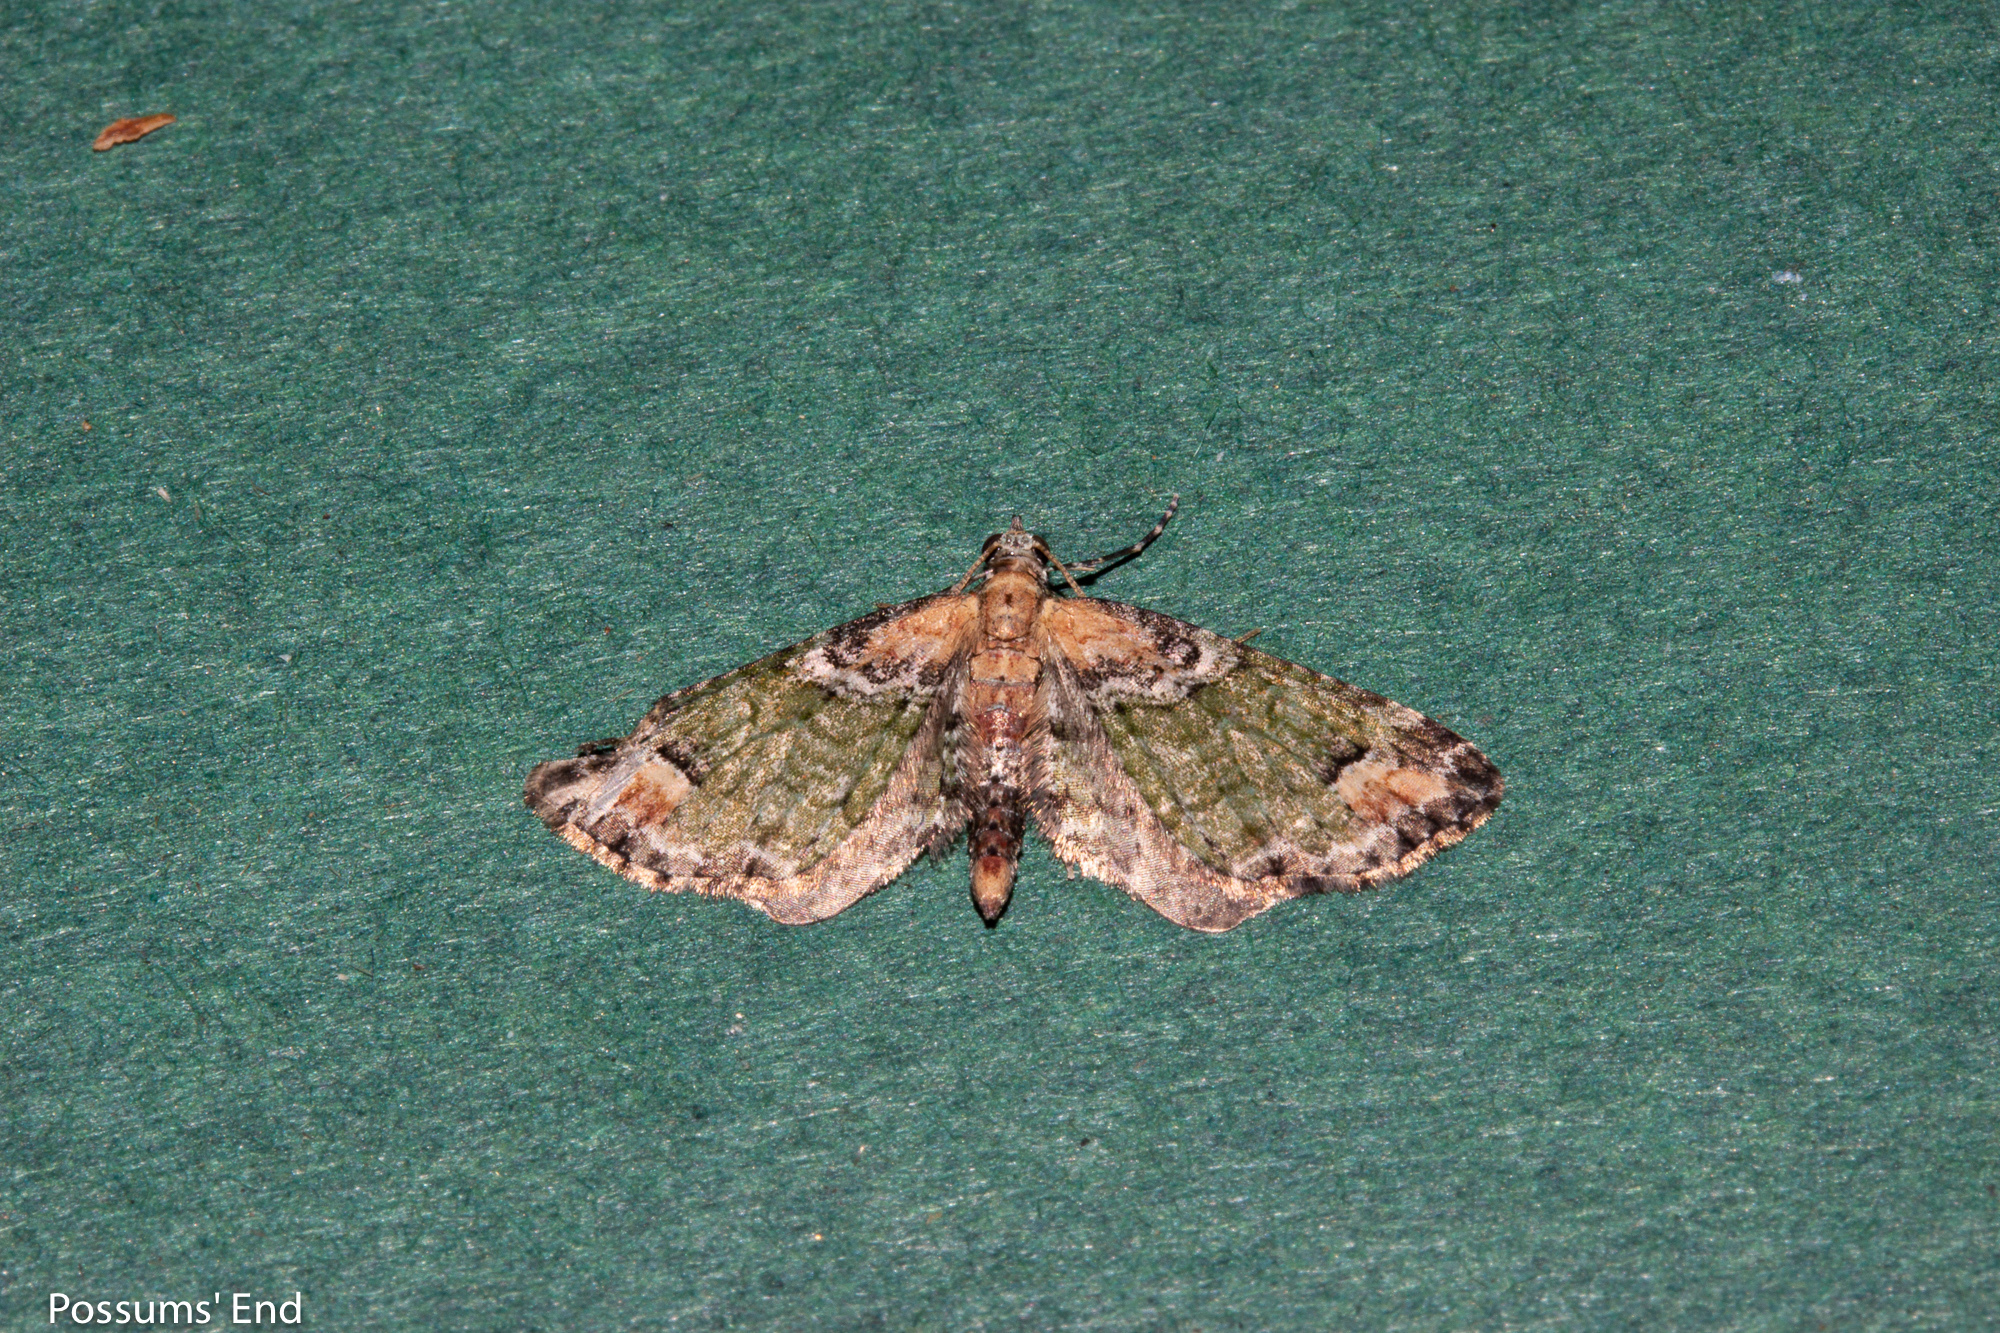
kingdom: Animalia
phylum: Arthropoda
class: Insecta
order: Lepidoptera
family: Geometridae
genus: Idaea
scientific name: Idaea mutanda
